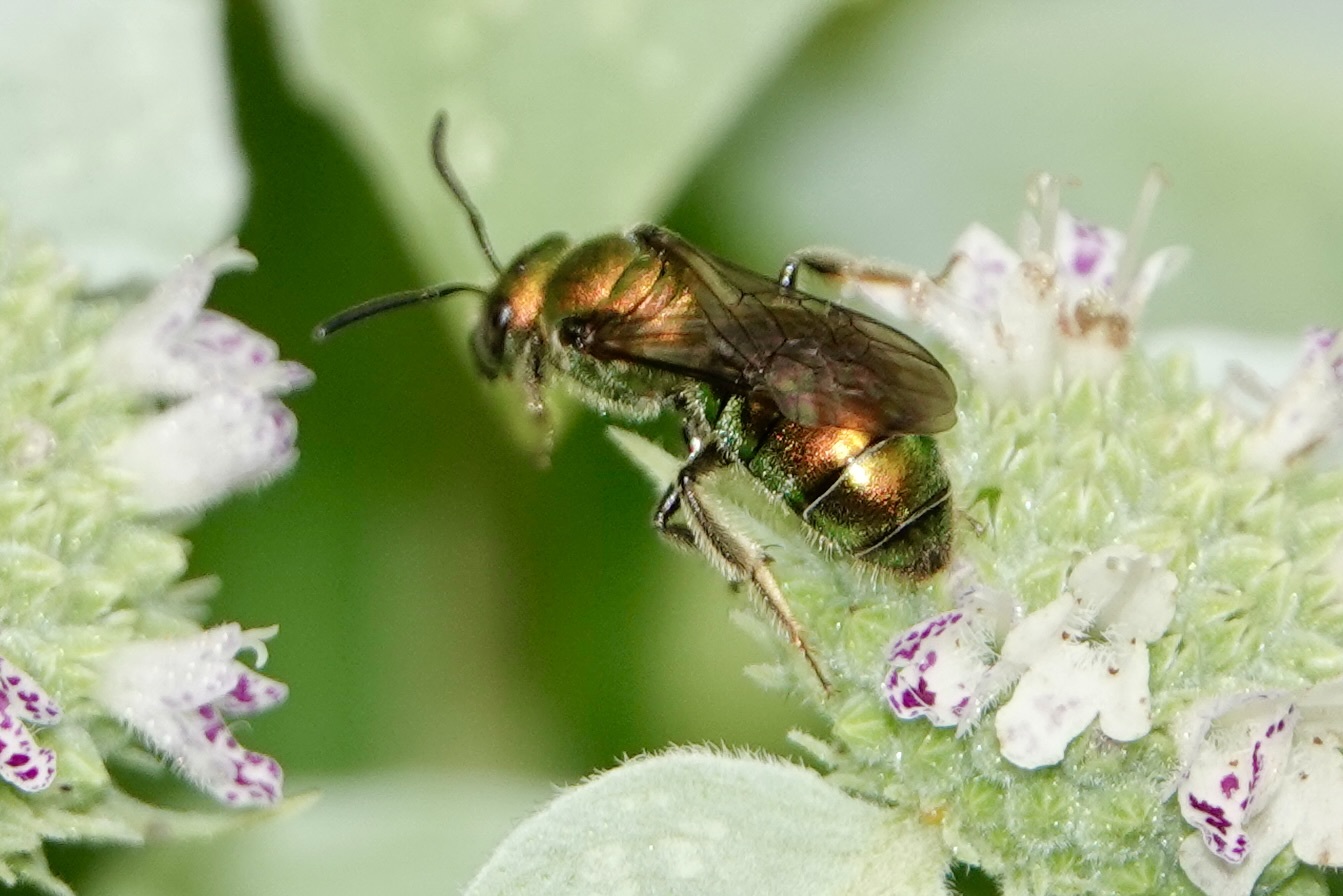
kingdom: Animalia
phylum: Arthropoda
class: Insecta
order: Hymenoptera
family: Halictidae
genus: Augochlora
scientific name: Augochlora pura
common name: Pure green sweat bee
